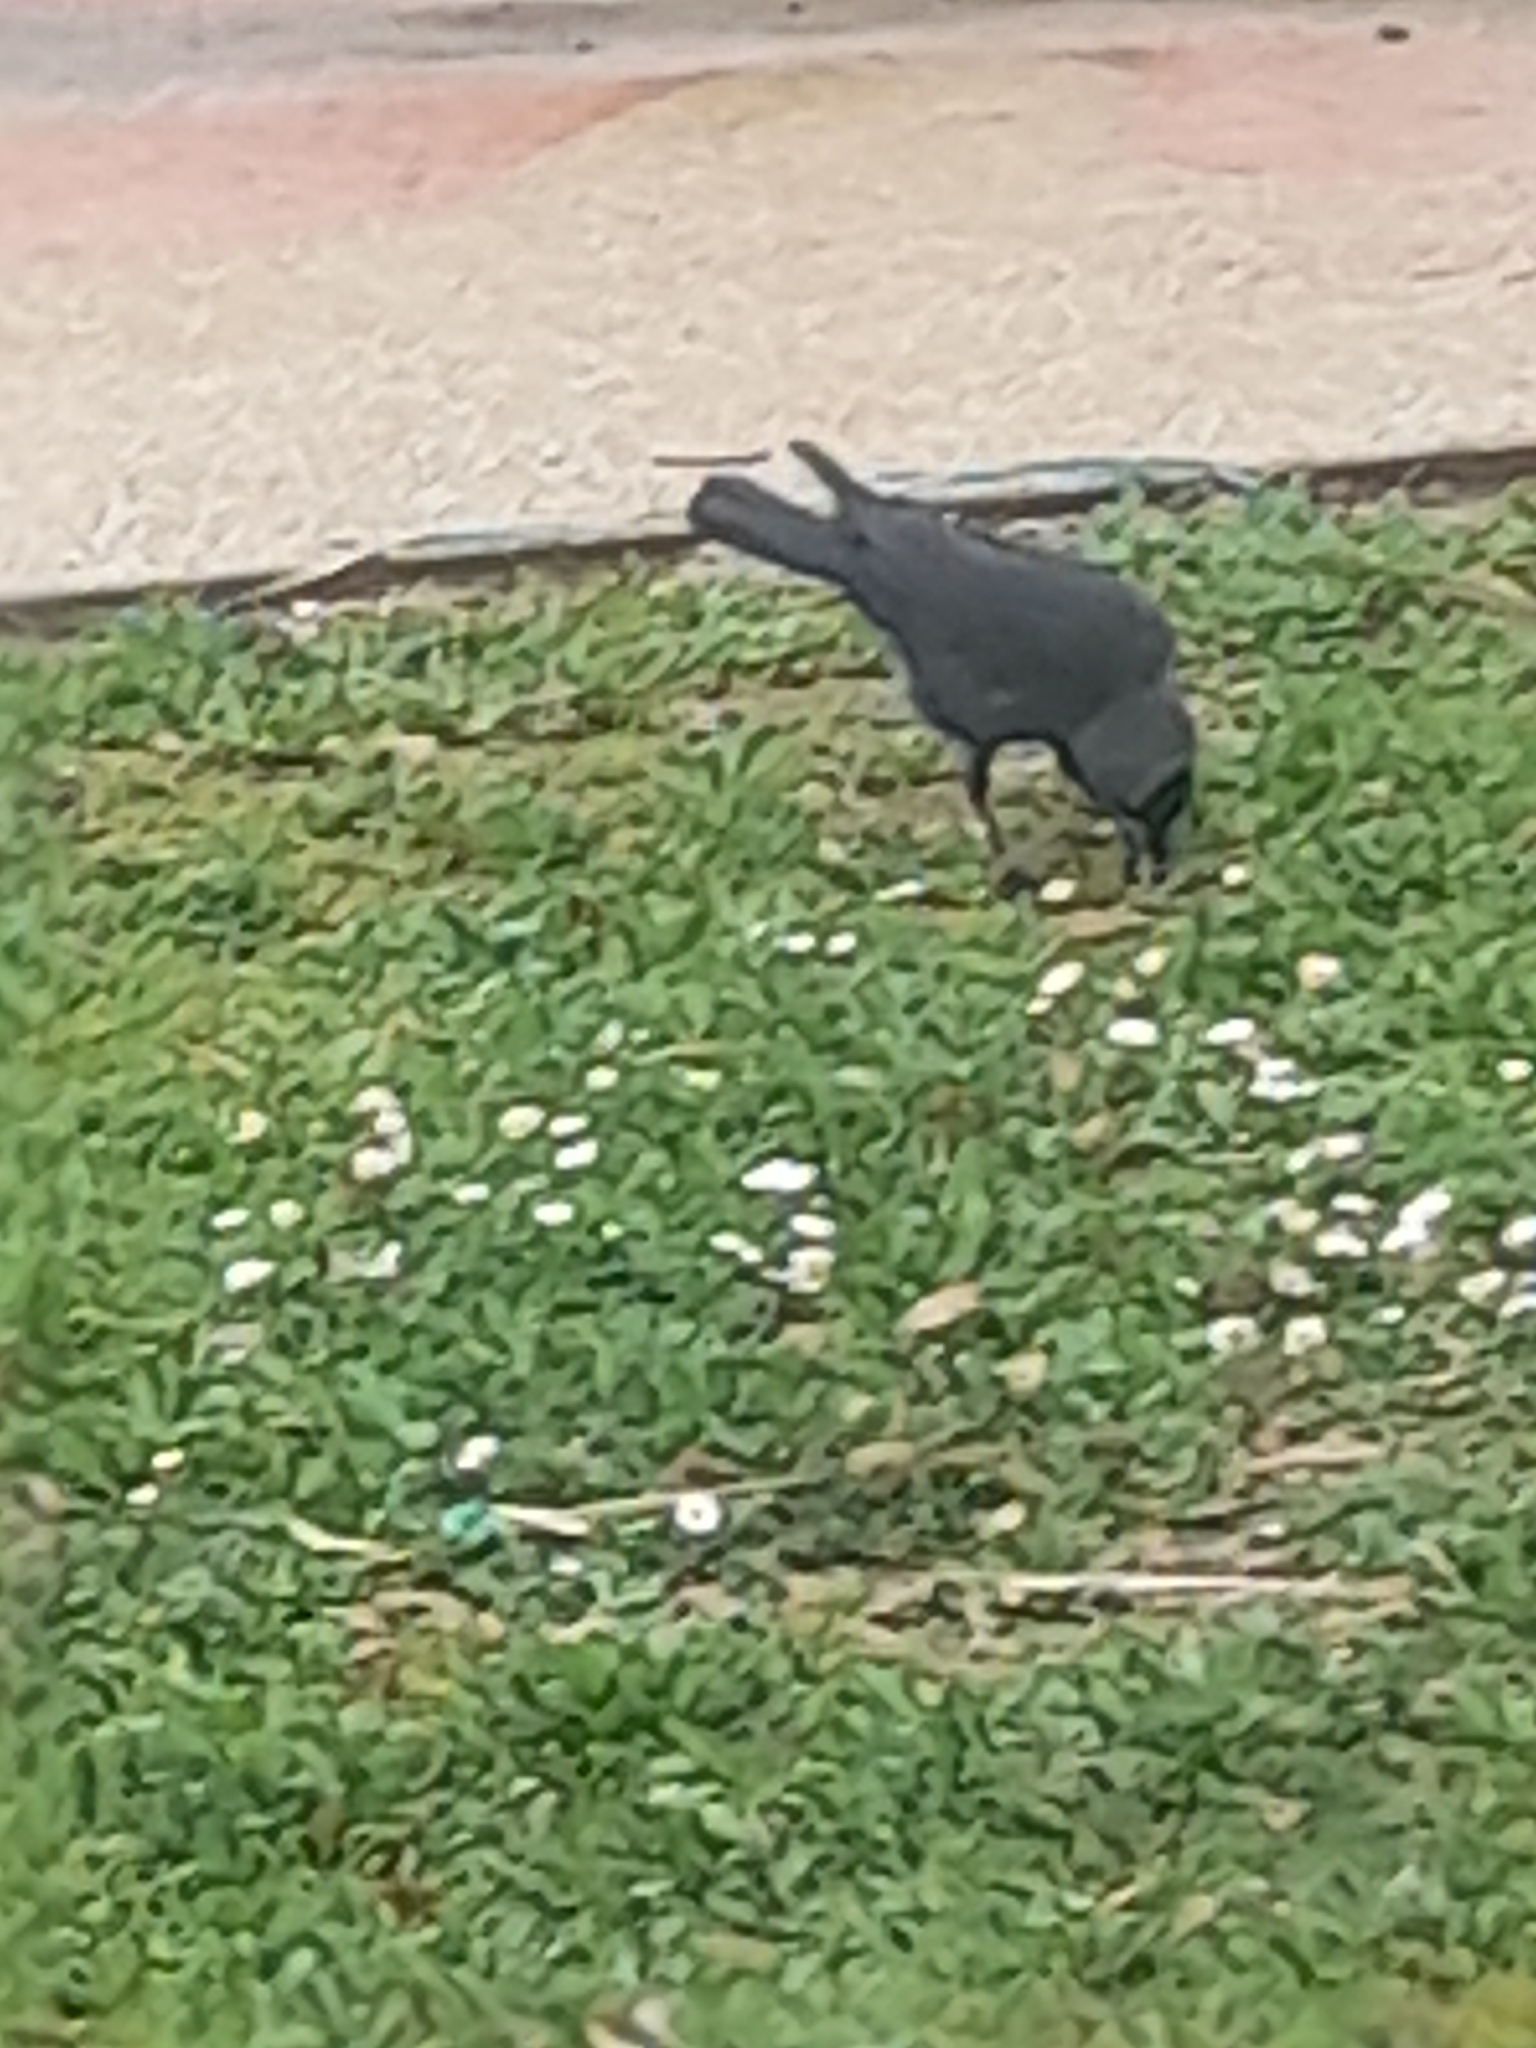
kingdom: Animalia
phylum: Chordata
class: Aves
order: Passeriformes
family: Corvidae
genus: Coloeus
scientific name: Coloeus monedula
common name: Western jackdaw
